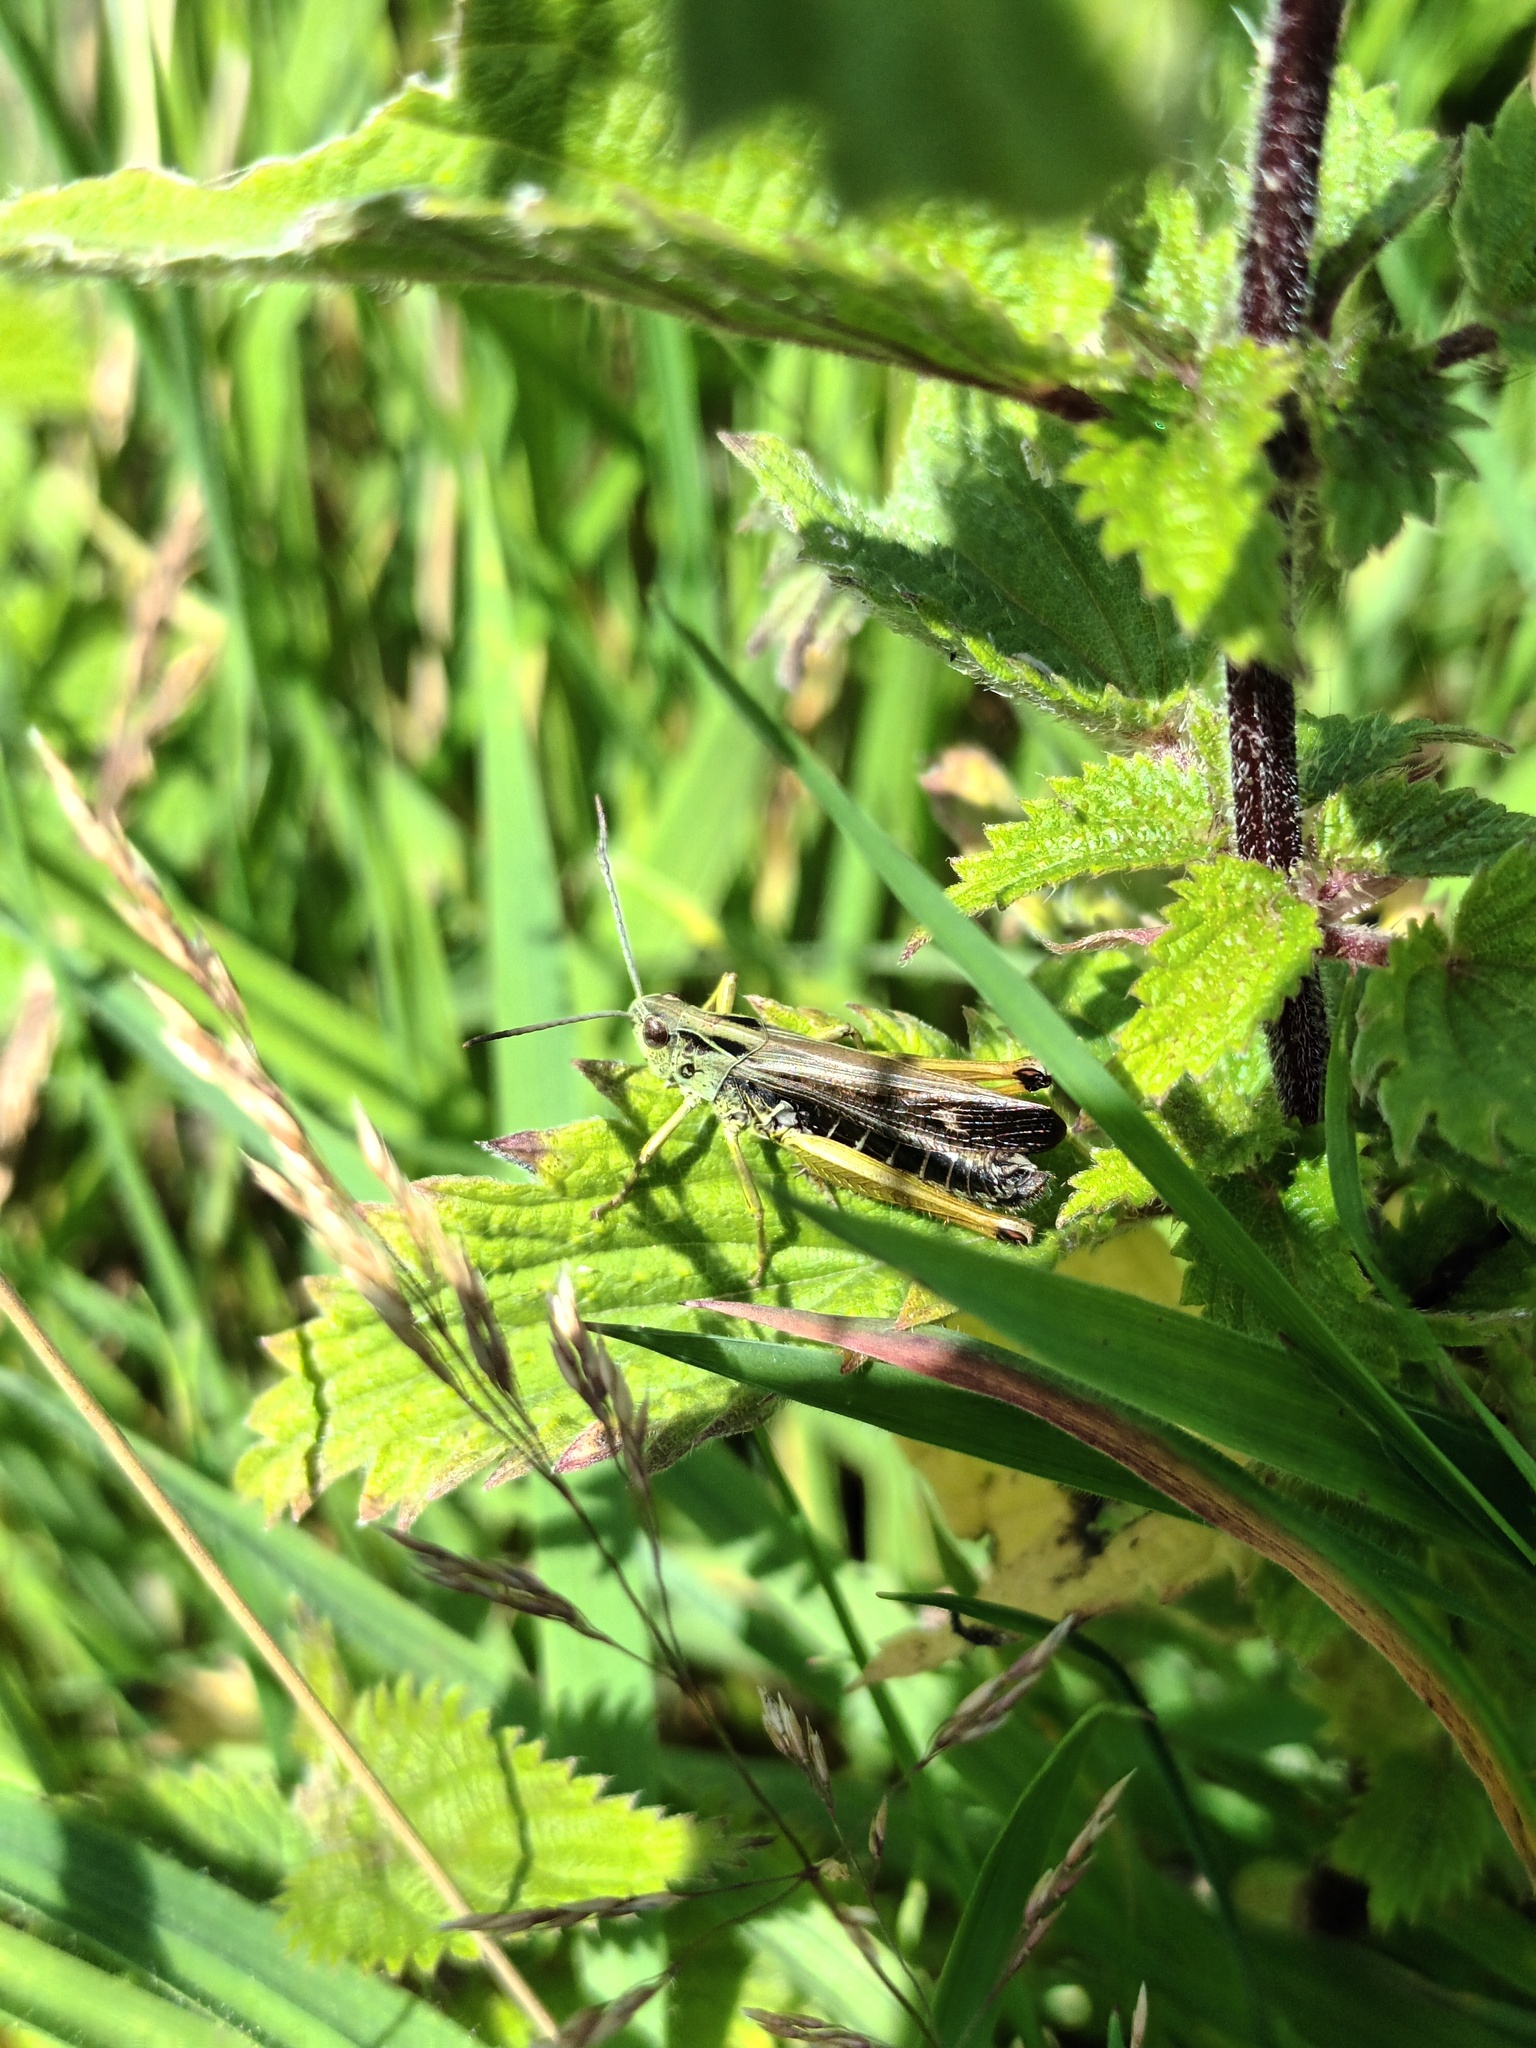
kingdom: Animalia
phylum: Arthropoda
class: Insecta
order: Orthoptera
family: Acrididae
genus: Omocestus
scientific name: Omocestus viridulus
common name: Common green grasshopper
